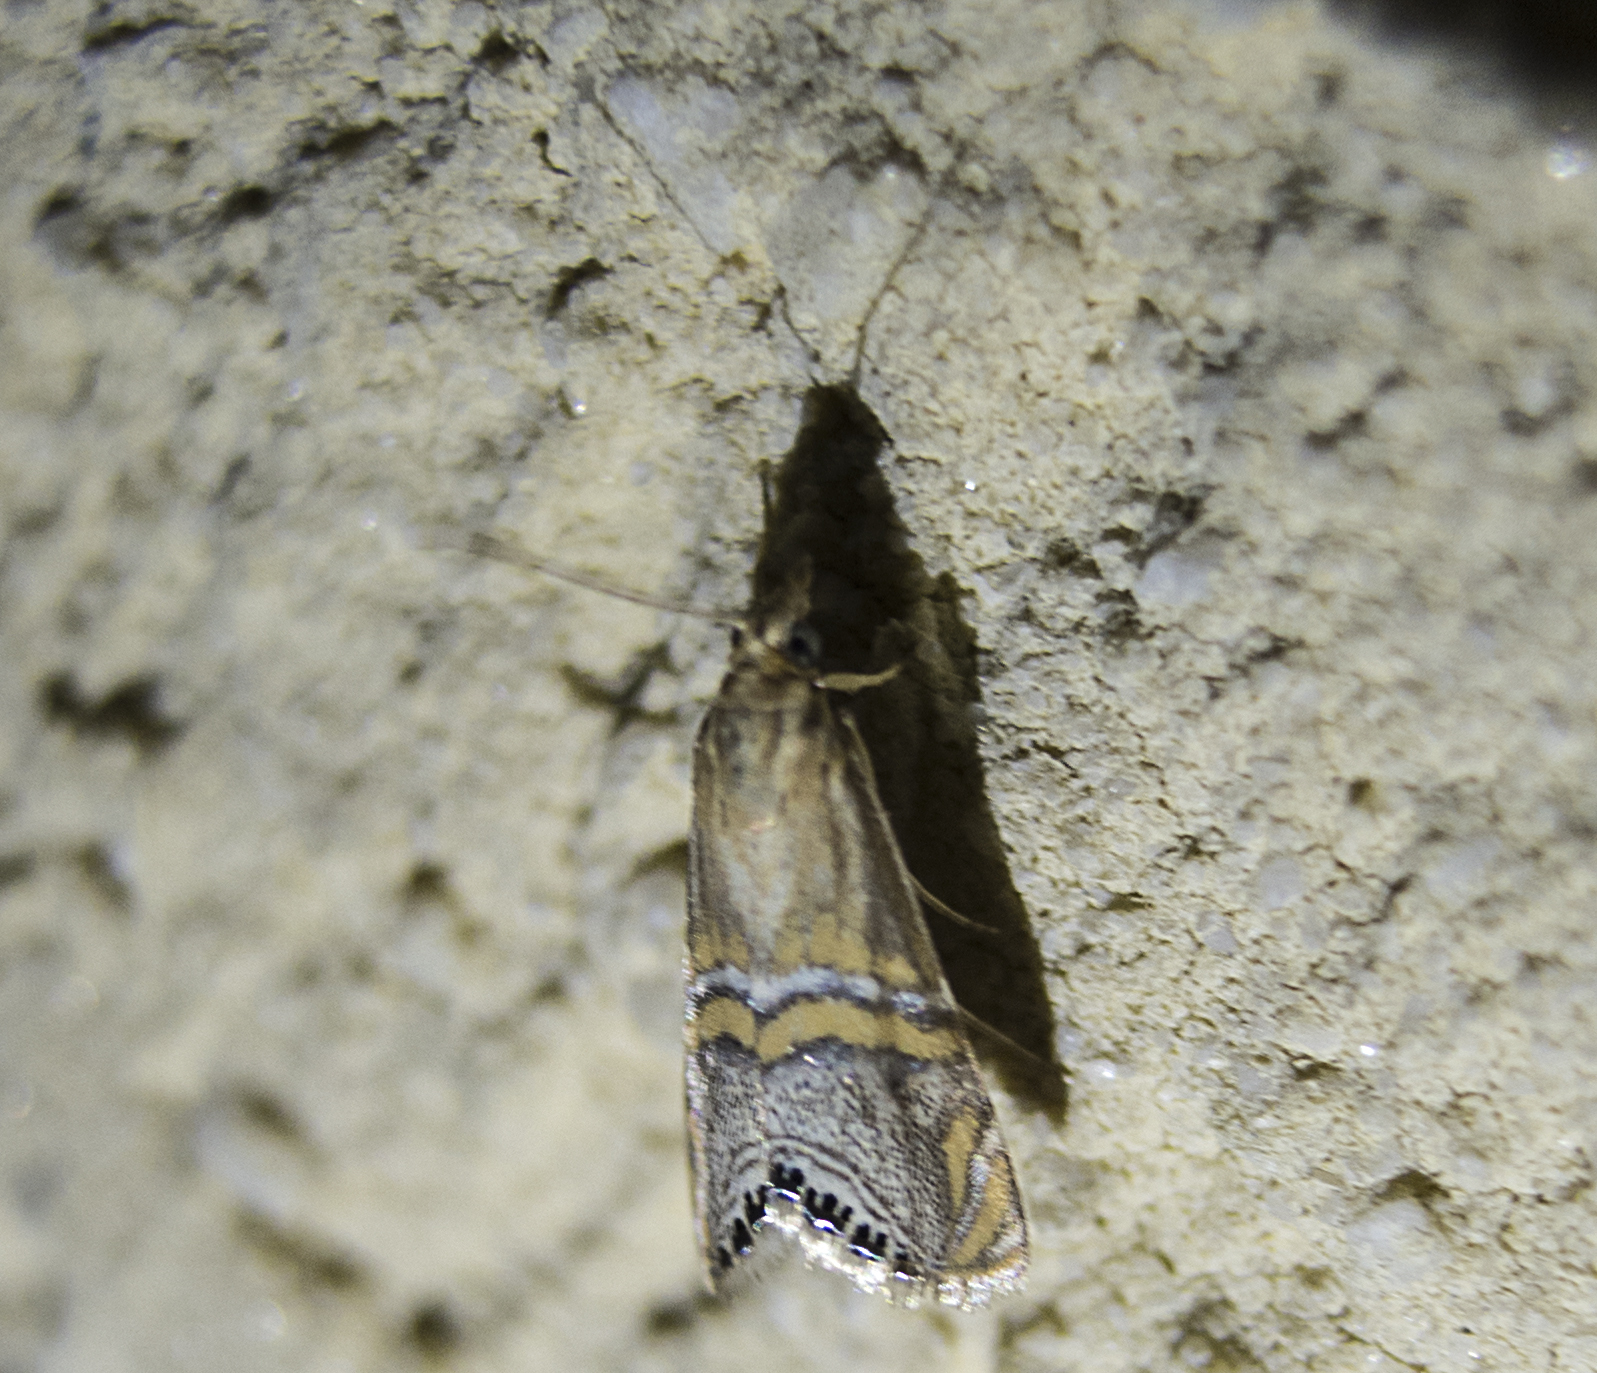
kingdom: Animalia
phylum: Arthropoda
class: Insecta
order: Lepidoptera
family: Crambidae
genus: Euchromius
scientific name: Euchromius bella
